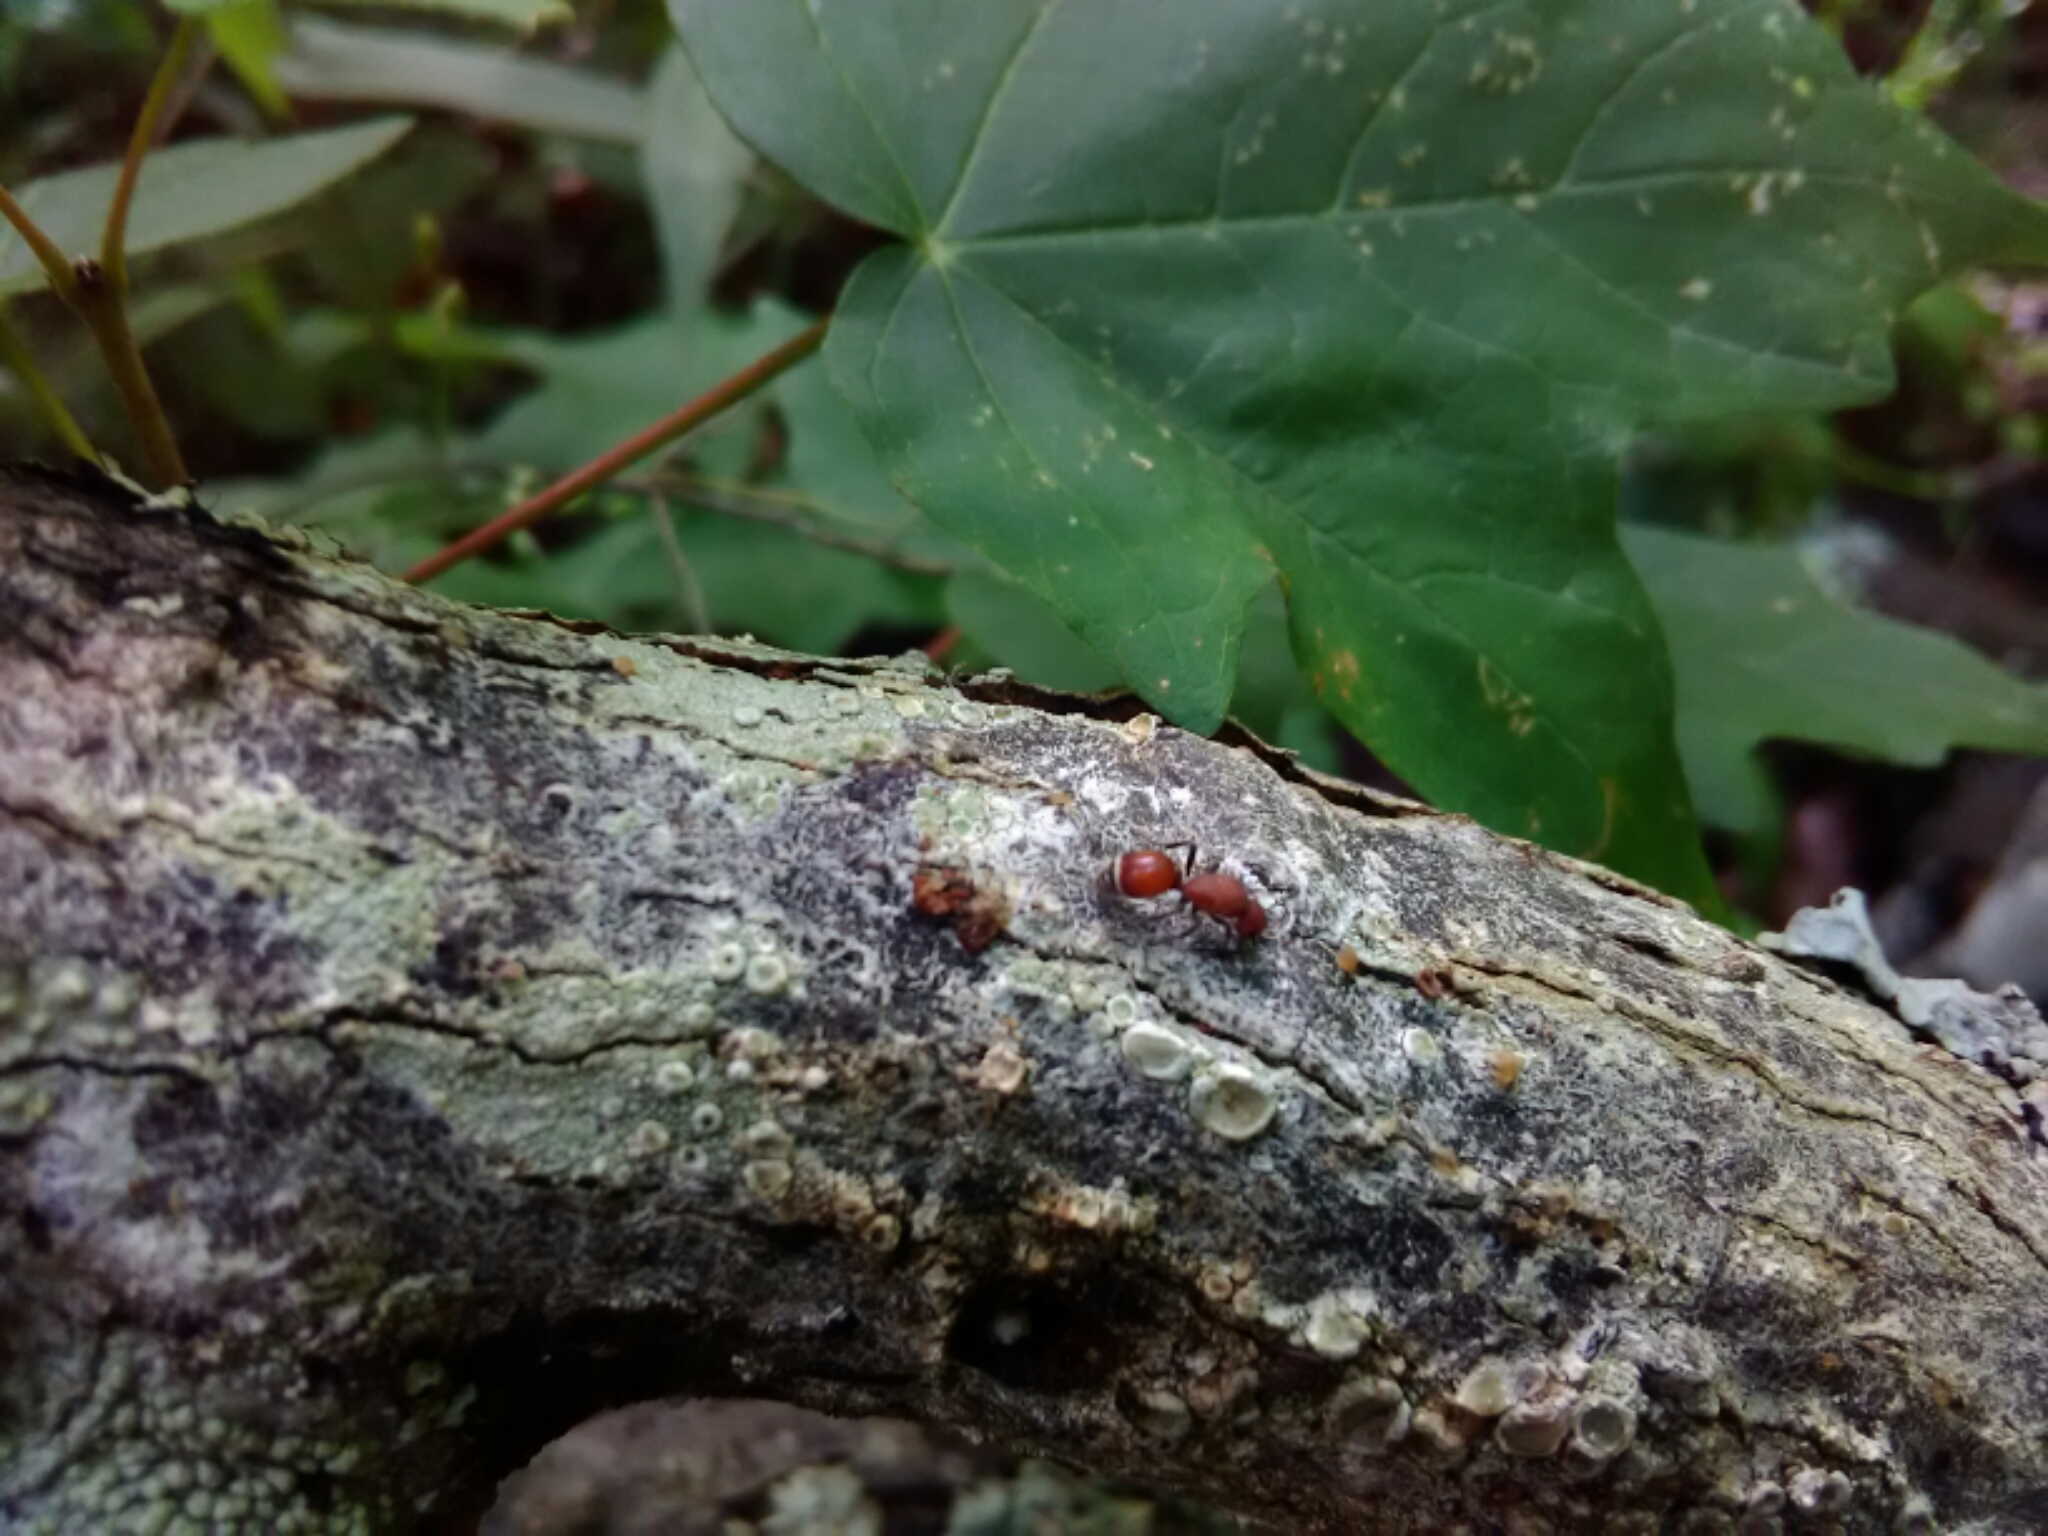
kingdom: Animalia
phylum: Arthropoda
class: Insecta
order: Hymenoptera
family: Mutillidae
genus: Sphaeropthalma
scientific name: Sphaeropthalma
